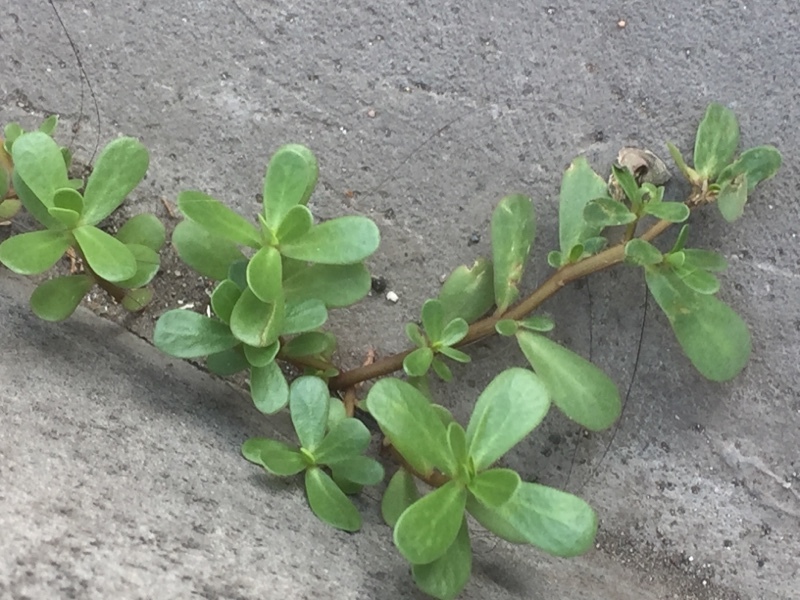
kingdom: Plantae
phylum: Tracheophyta
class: Magnoliopsida
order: Caryophyllales
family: Portulacaceae
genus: Portulaca
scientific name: Portulaca oleracea
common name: Common purslane
